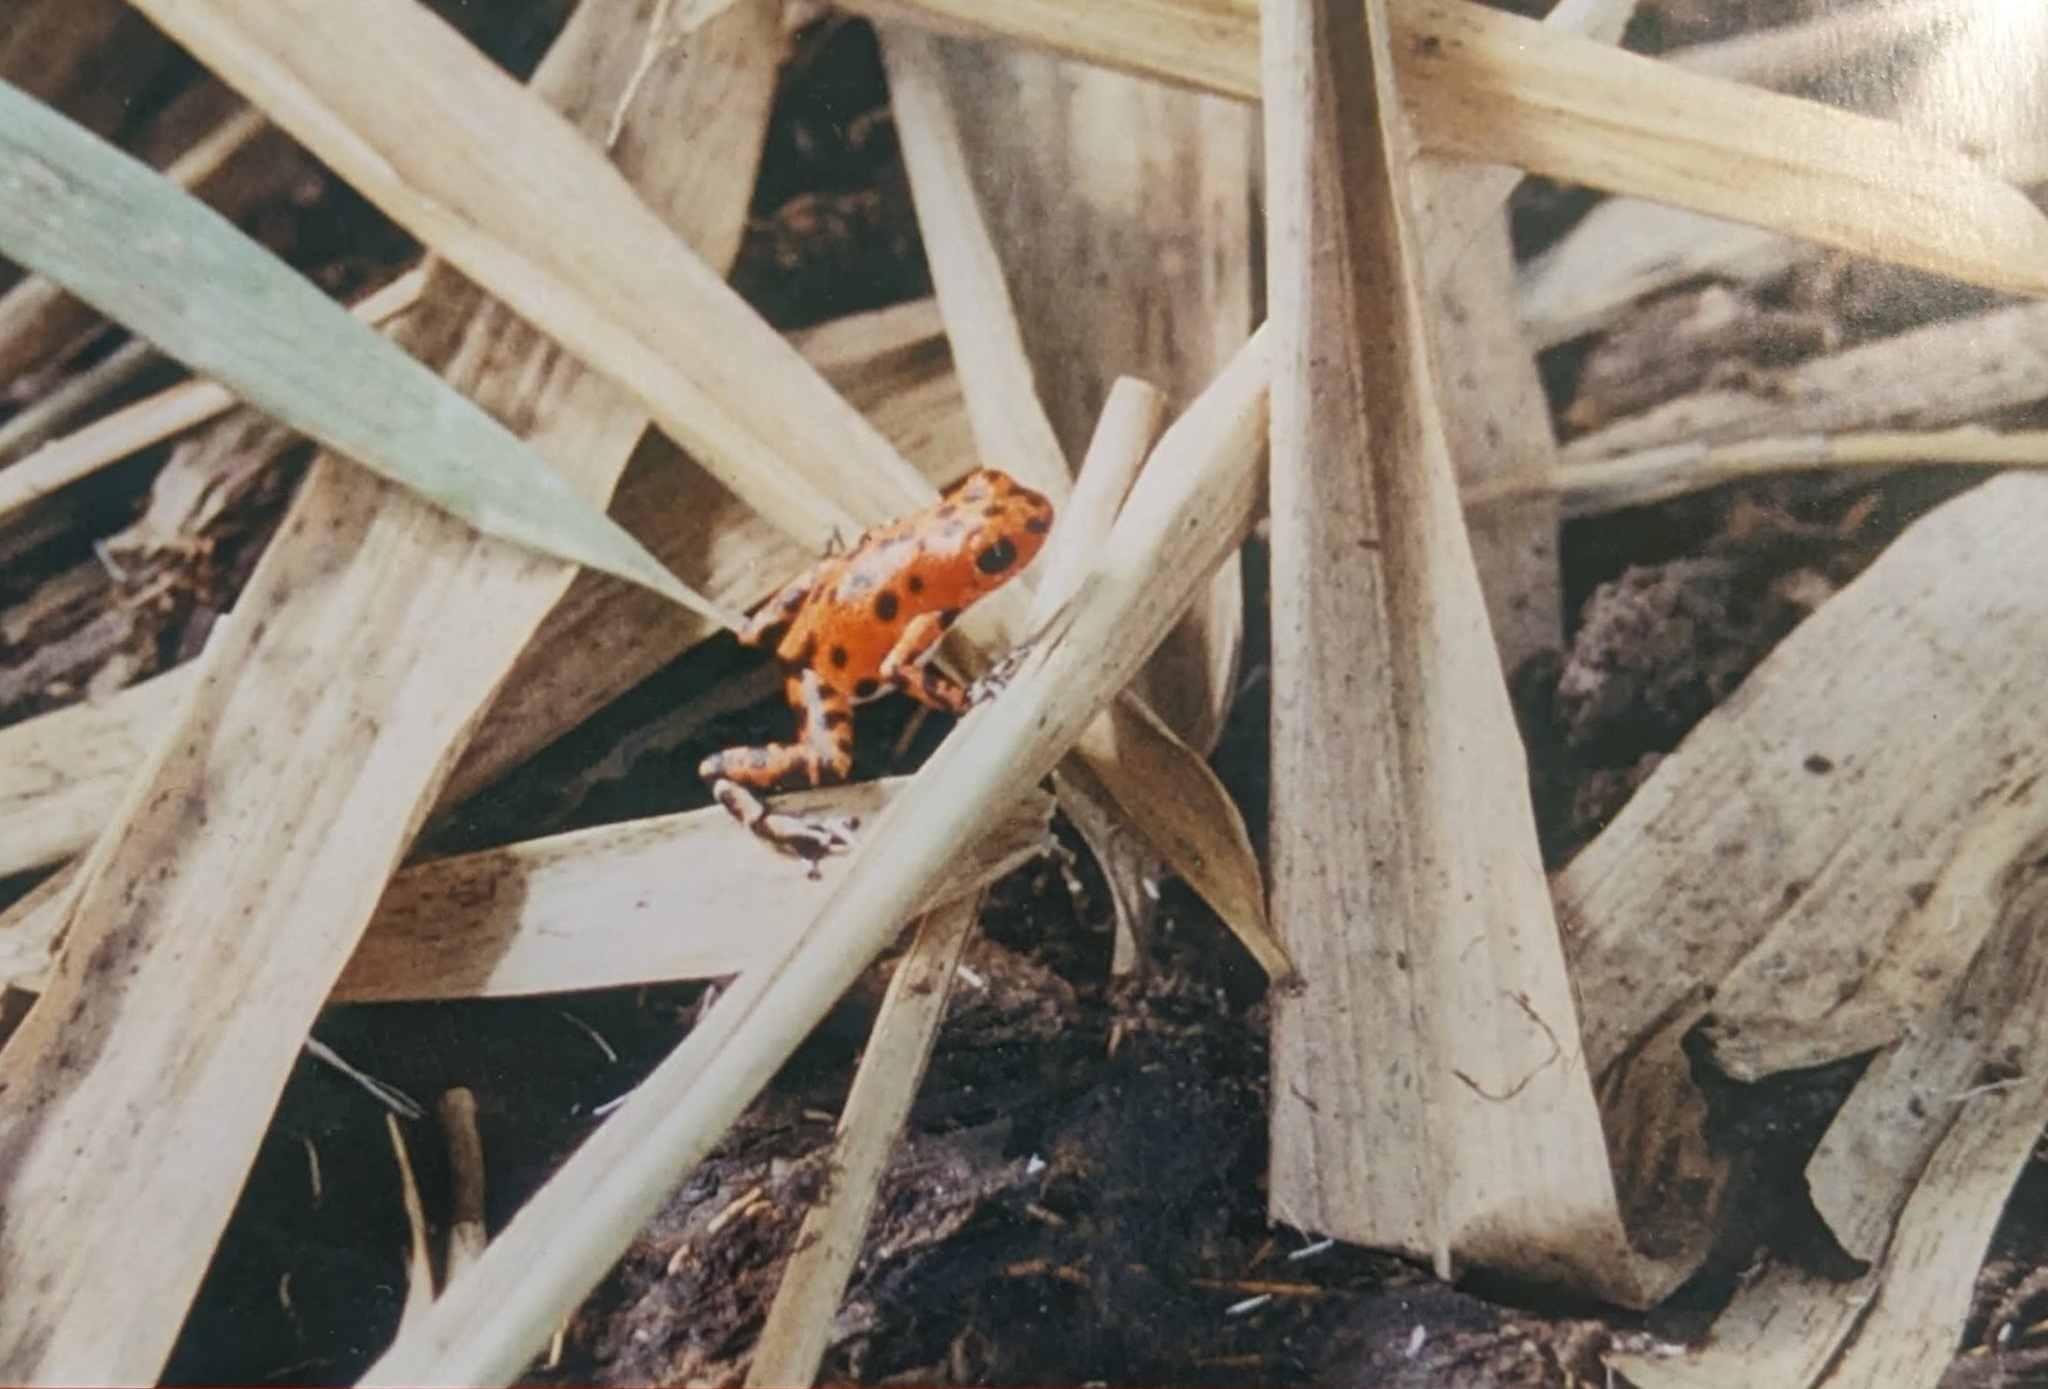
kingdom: Animalia
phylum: Chordata
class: Amphibia
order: Anura
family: Dendrobatidae
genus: Oophaga
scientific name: Oophaga pumilio
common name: Flaming poison frog
